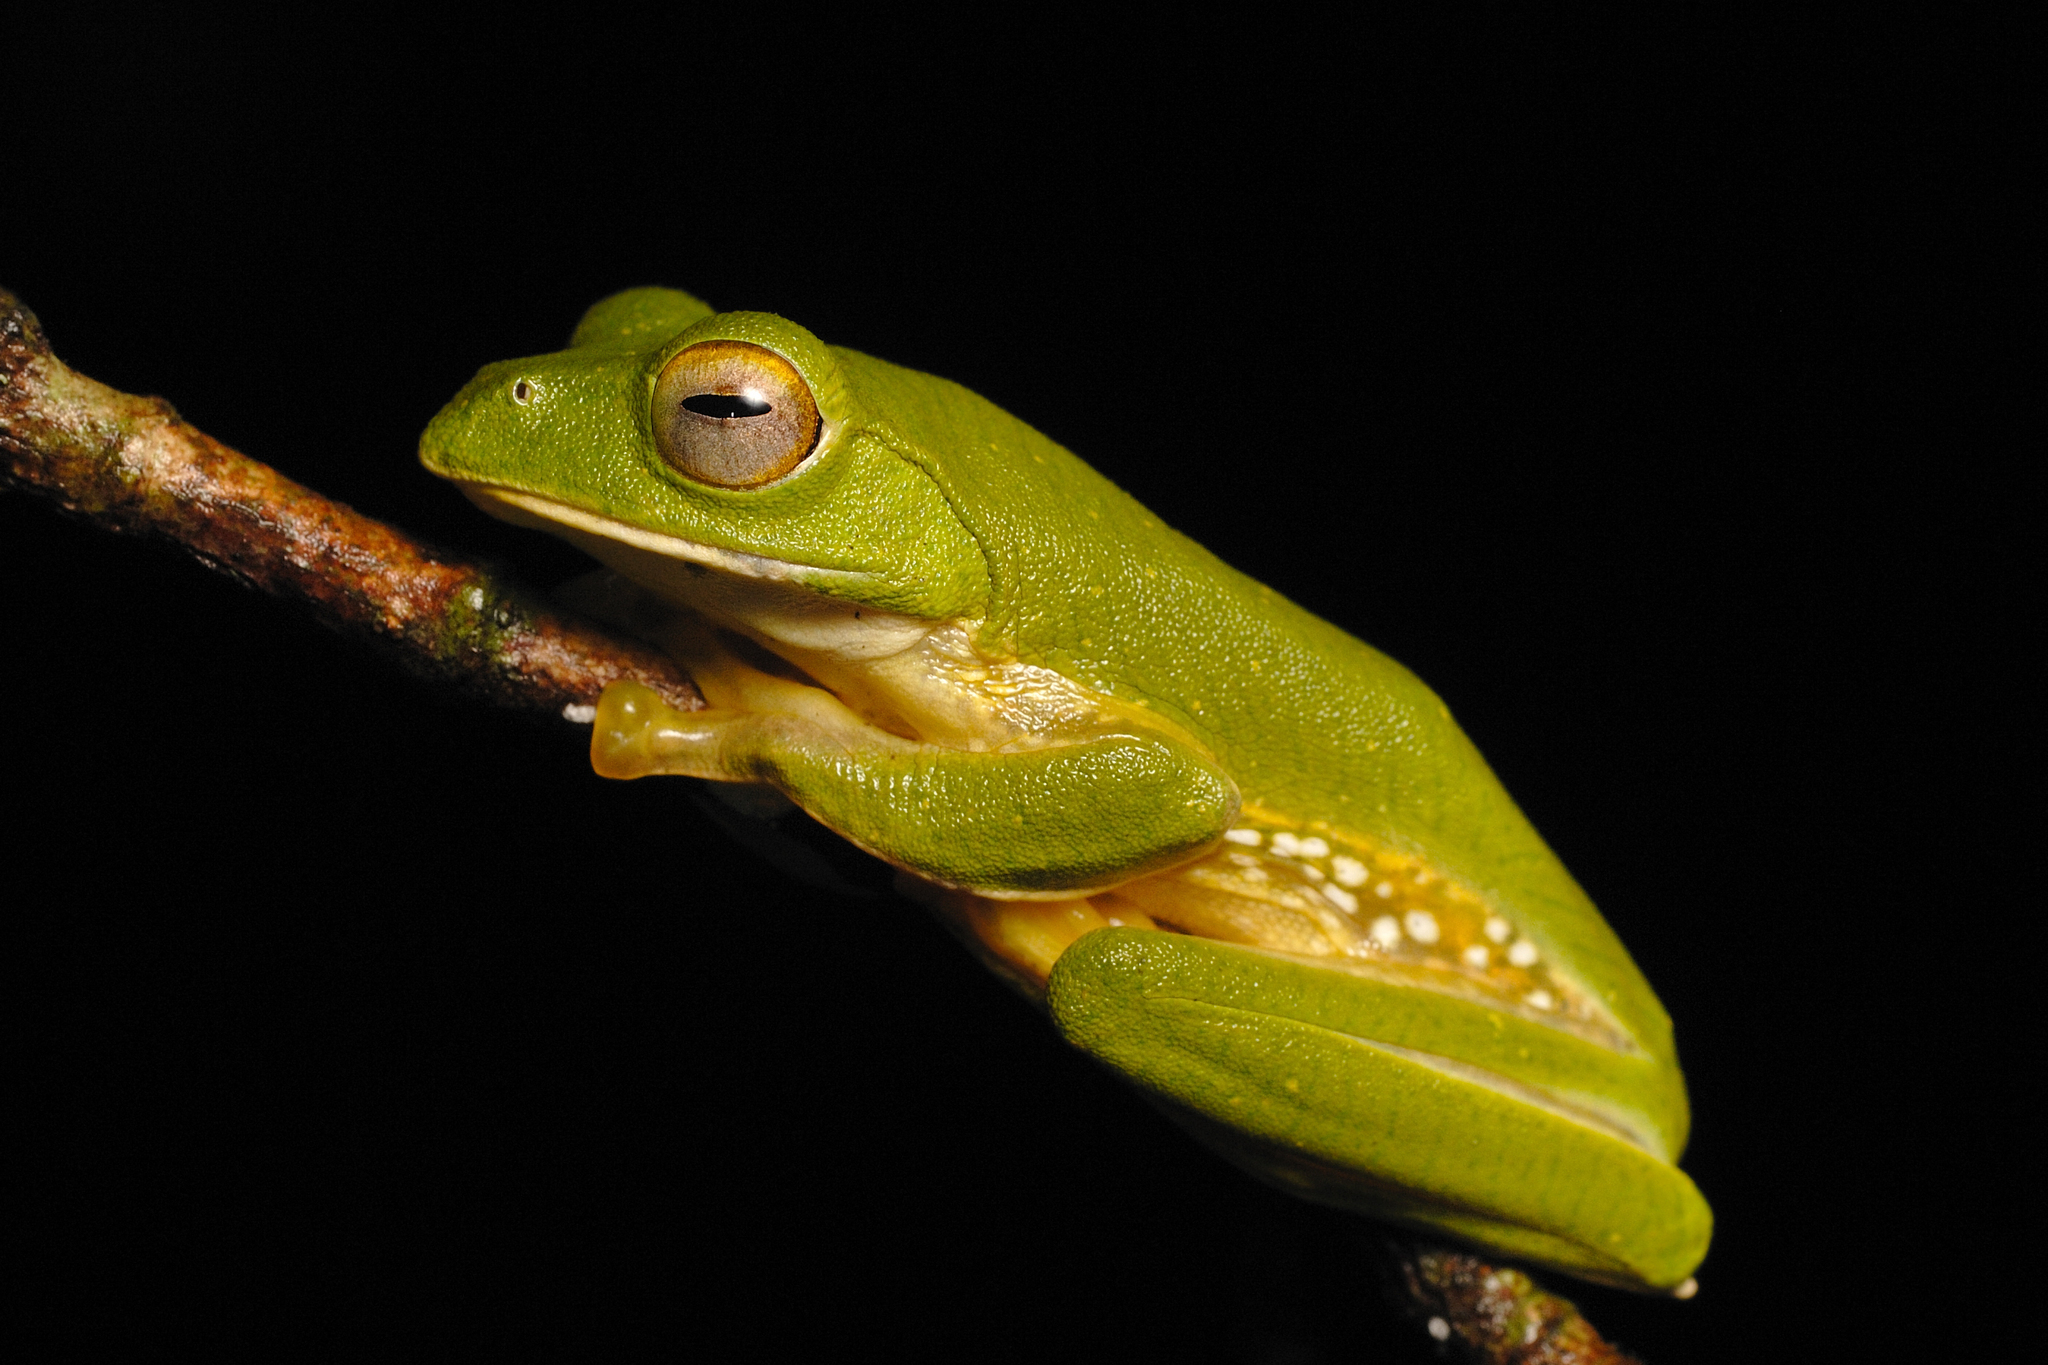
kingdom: Animalia
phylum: Chordata
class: Amphibia
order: Anura
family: Rhacophoridae
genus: Rhacophorus
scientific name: Rhacophorus pseudomalabaricus
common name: Anaimalai flying frog
